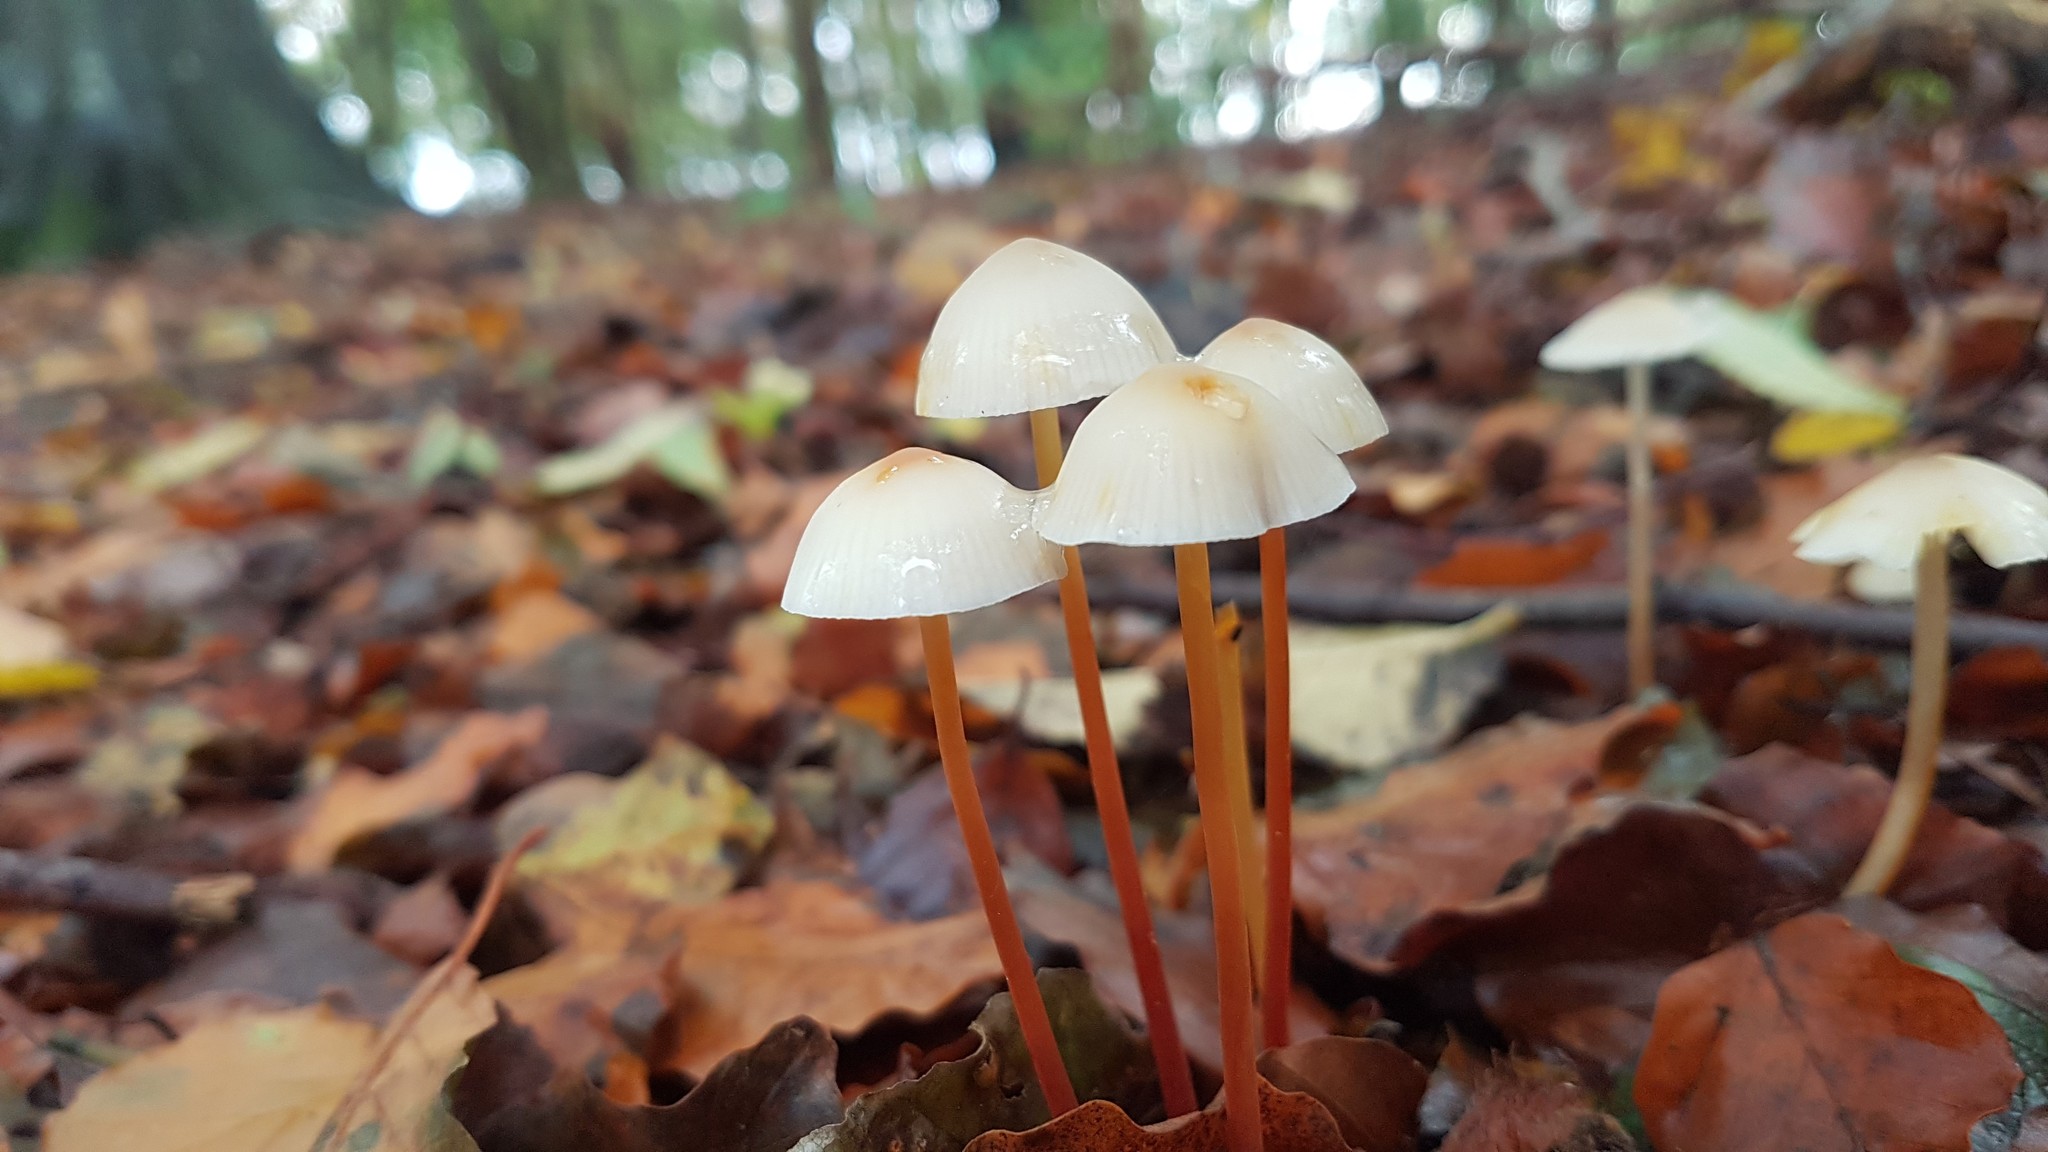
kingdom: Fungi
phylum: Basidiomycota
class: Agaricomycetes
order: Agaricales
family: Mycenaceae
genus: Mycena
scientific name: Mycena crocata
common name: Saffrondrop bonnet
